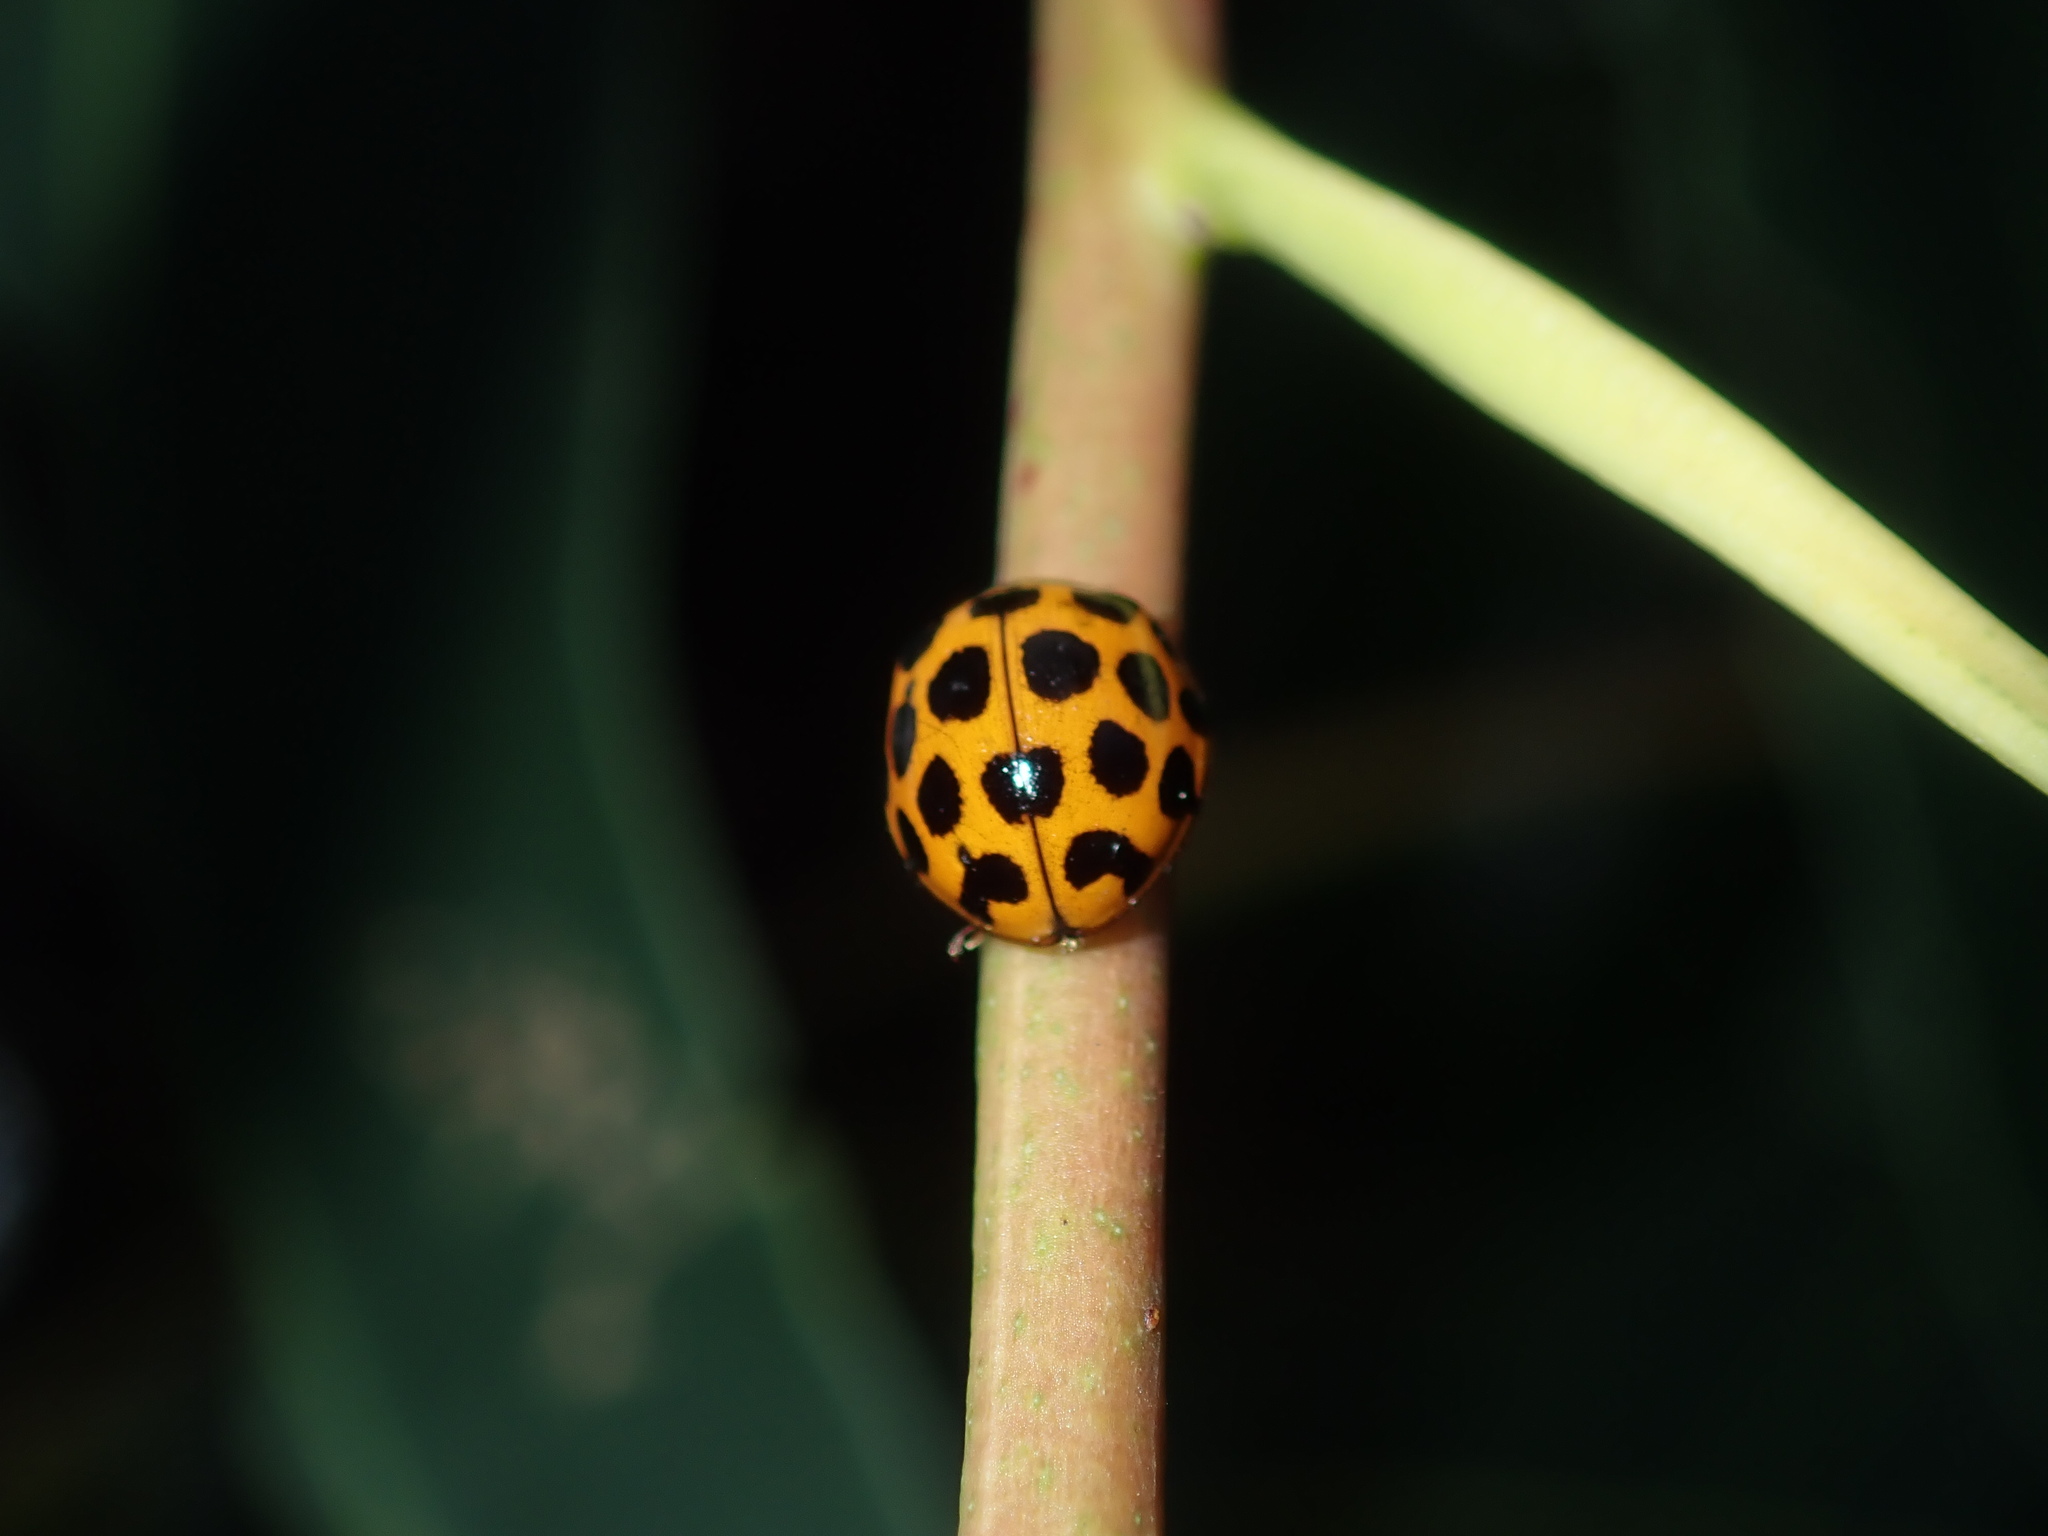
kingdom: Animalia
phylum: Arthropoda
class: Insecta
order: Coleoptera
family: Coccinellidae
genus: Harmonia
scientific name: Harmonia conformis
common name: Common spotted ladybird beetle
